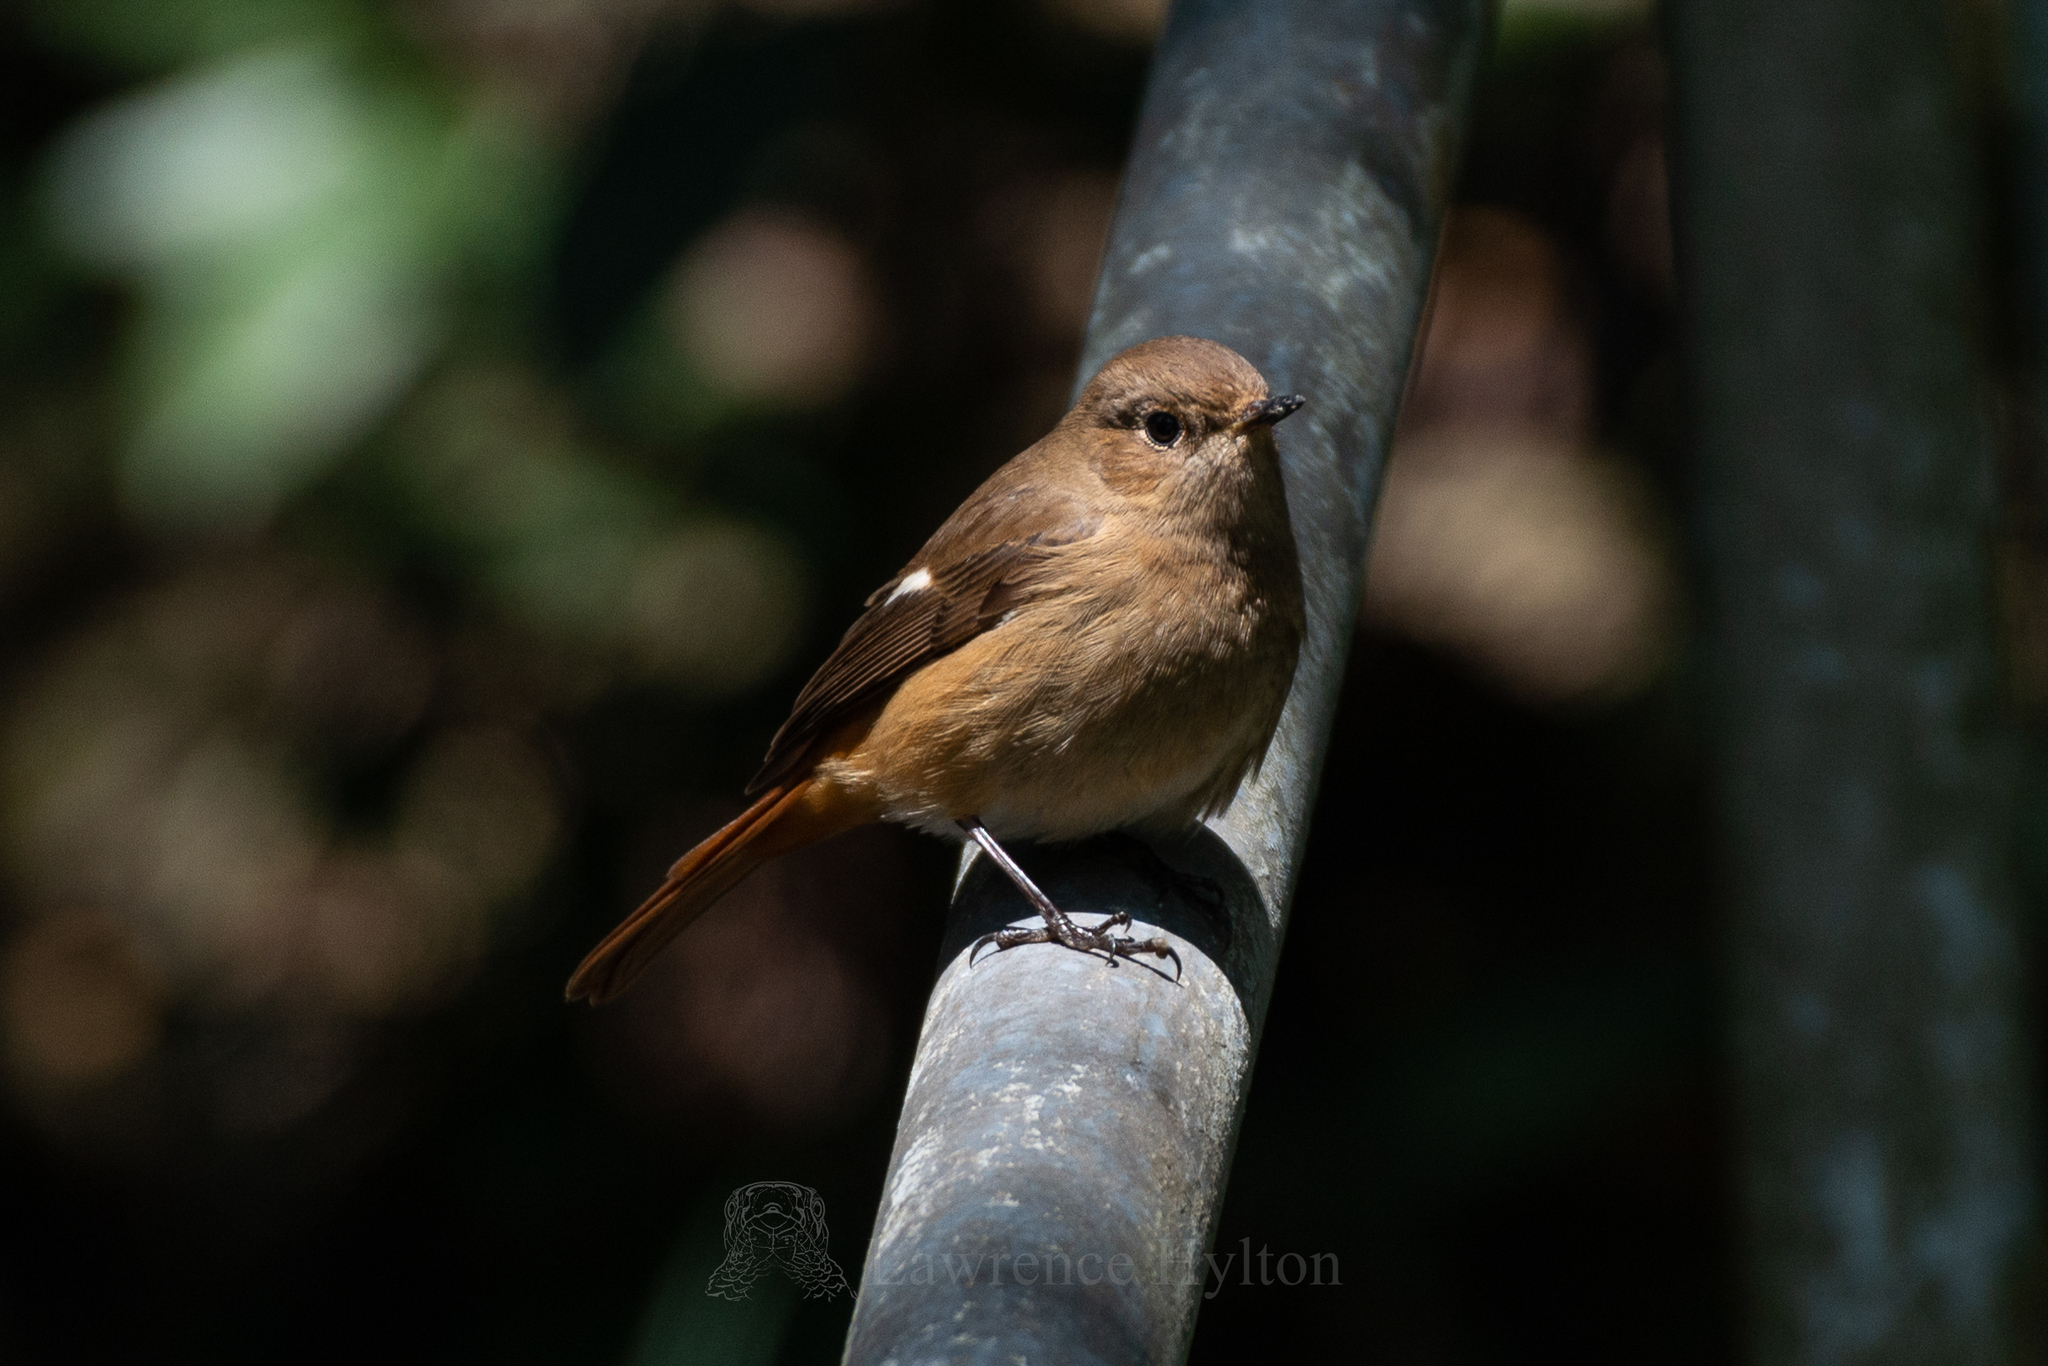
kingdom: Animalia
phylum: Chordata
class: Aves
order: Passeriformes
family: Muscicapidae
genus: Phoenicurus
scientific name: Phoenicurus auroreus
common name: Daurian redstart
